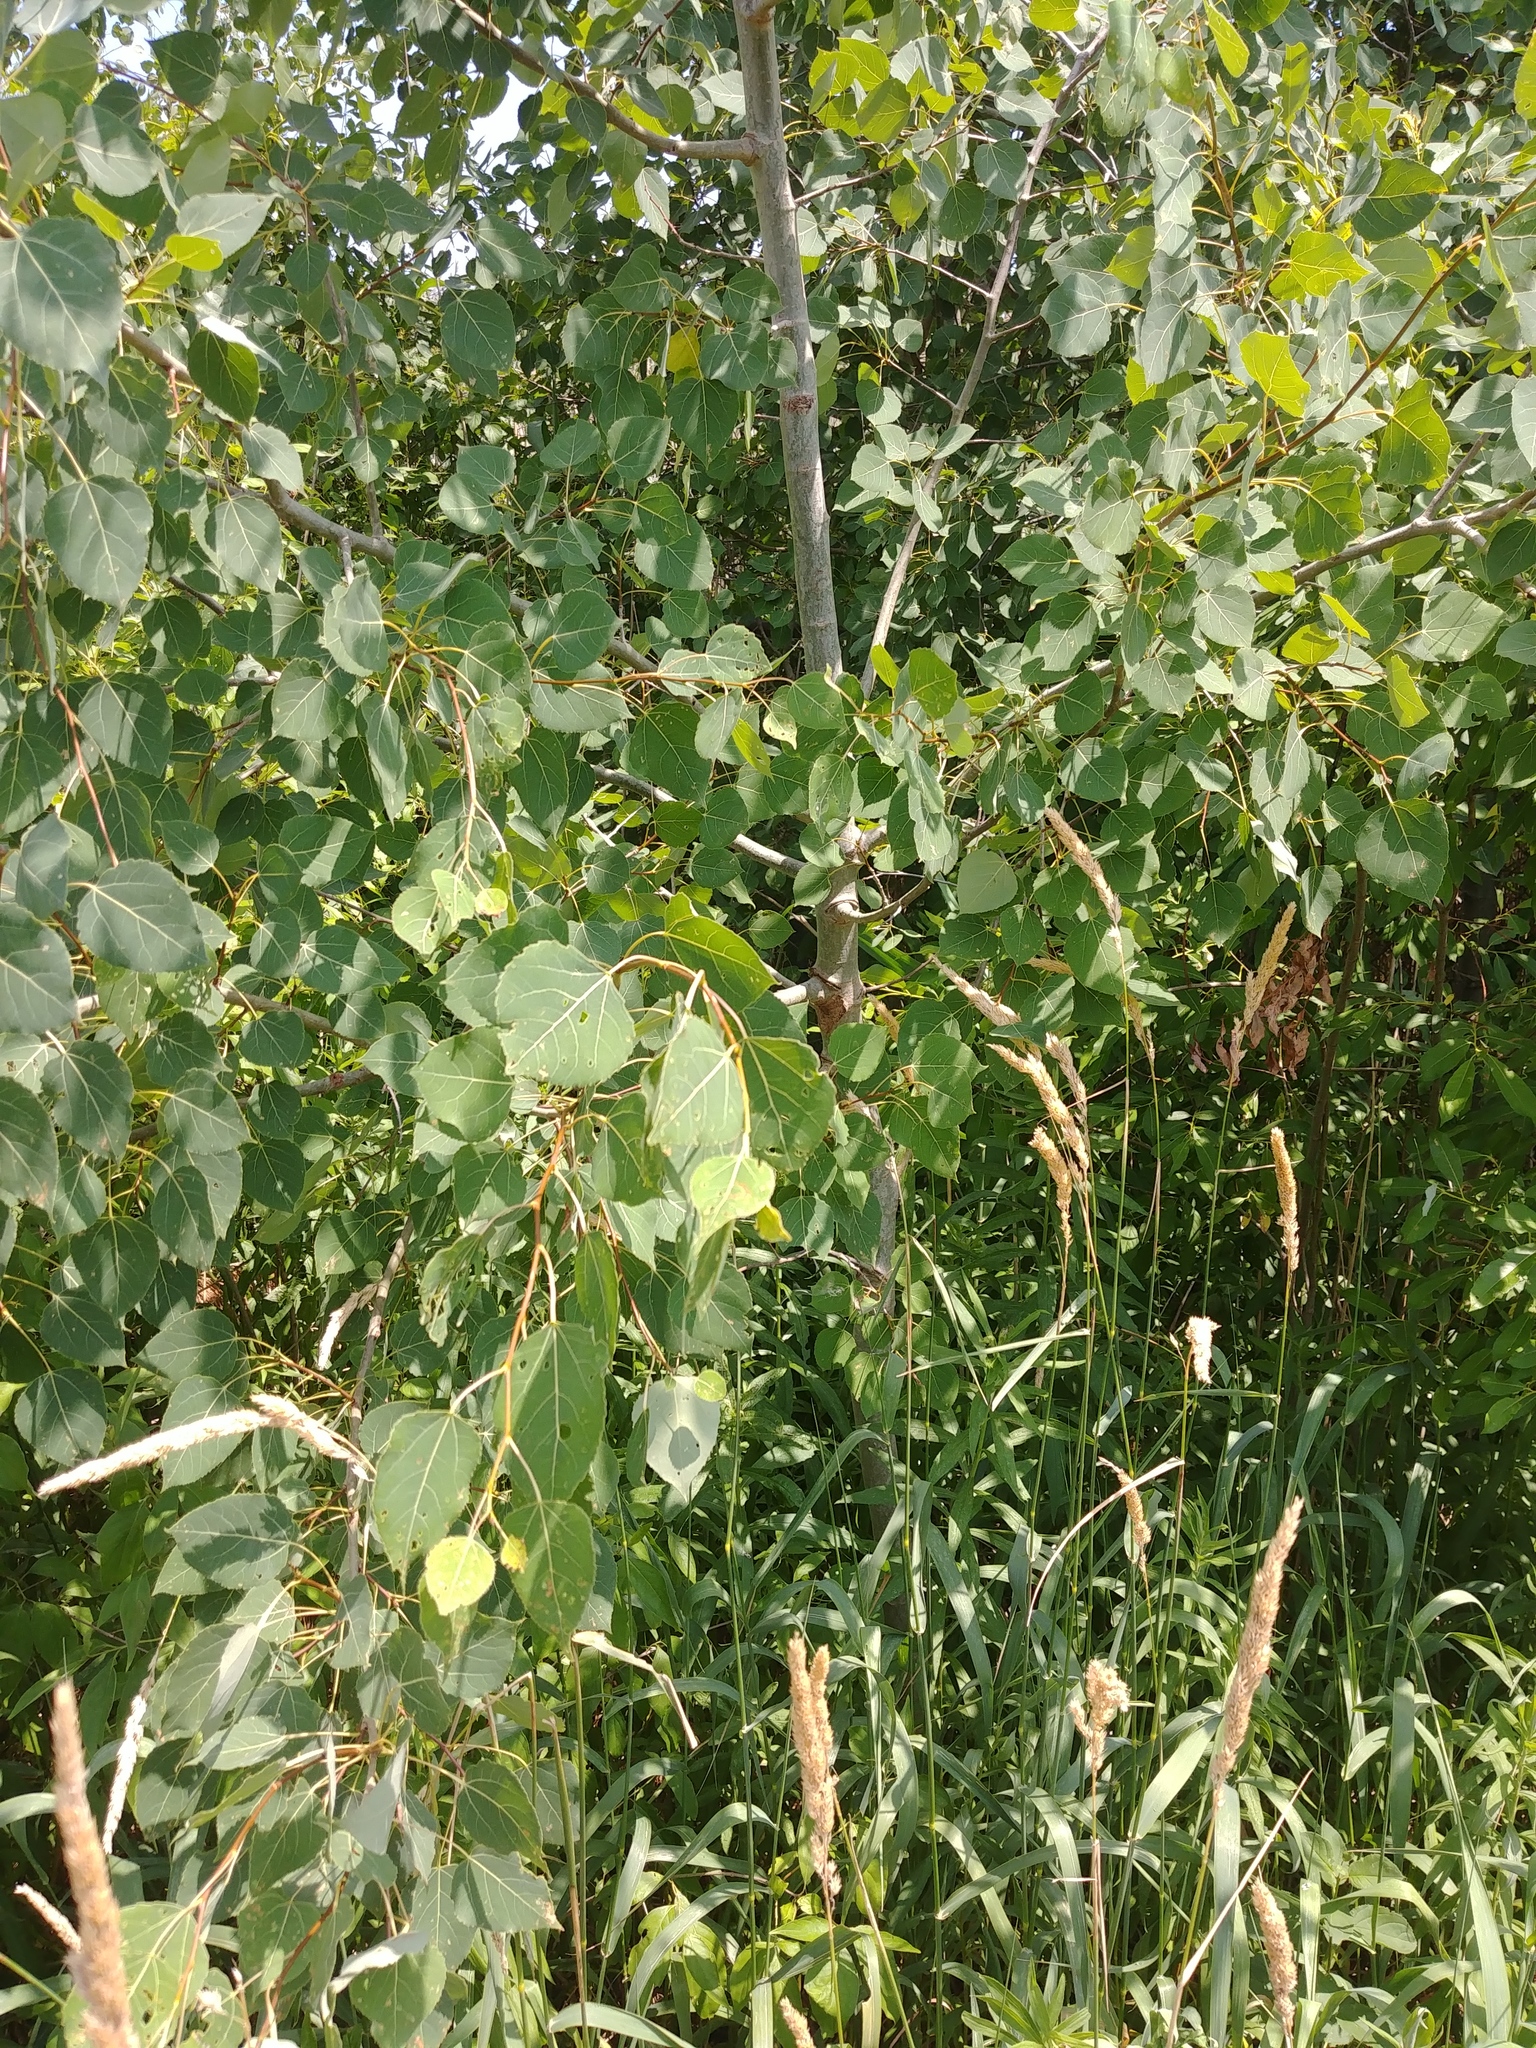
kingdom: Plantae
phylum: Tracheophyta
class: Magnoliopsida
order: Malpighiales
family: Salicaceae
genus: Populus
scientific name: Populus tremuloides
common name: Quaking aspen
